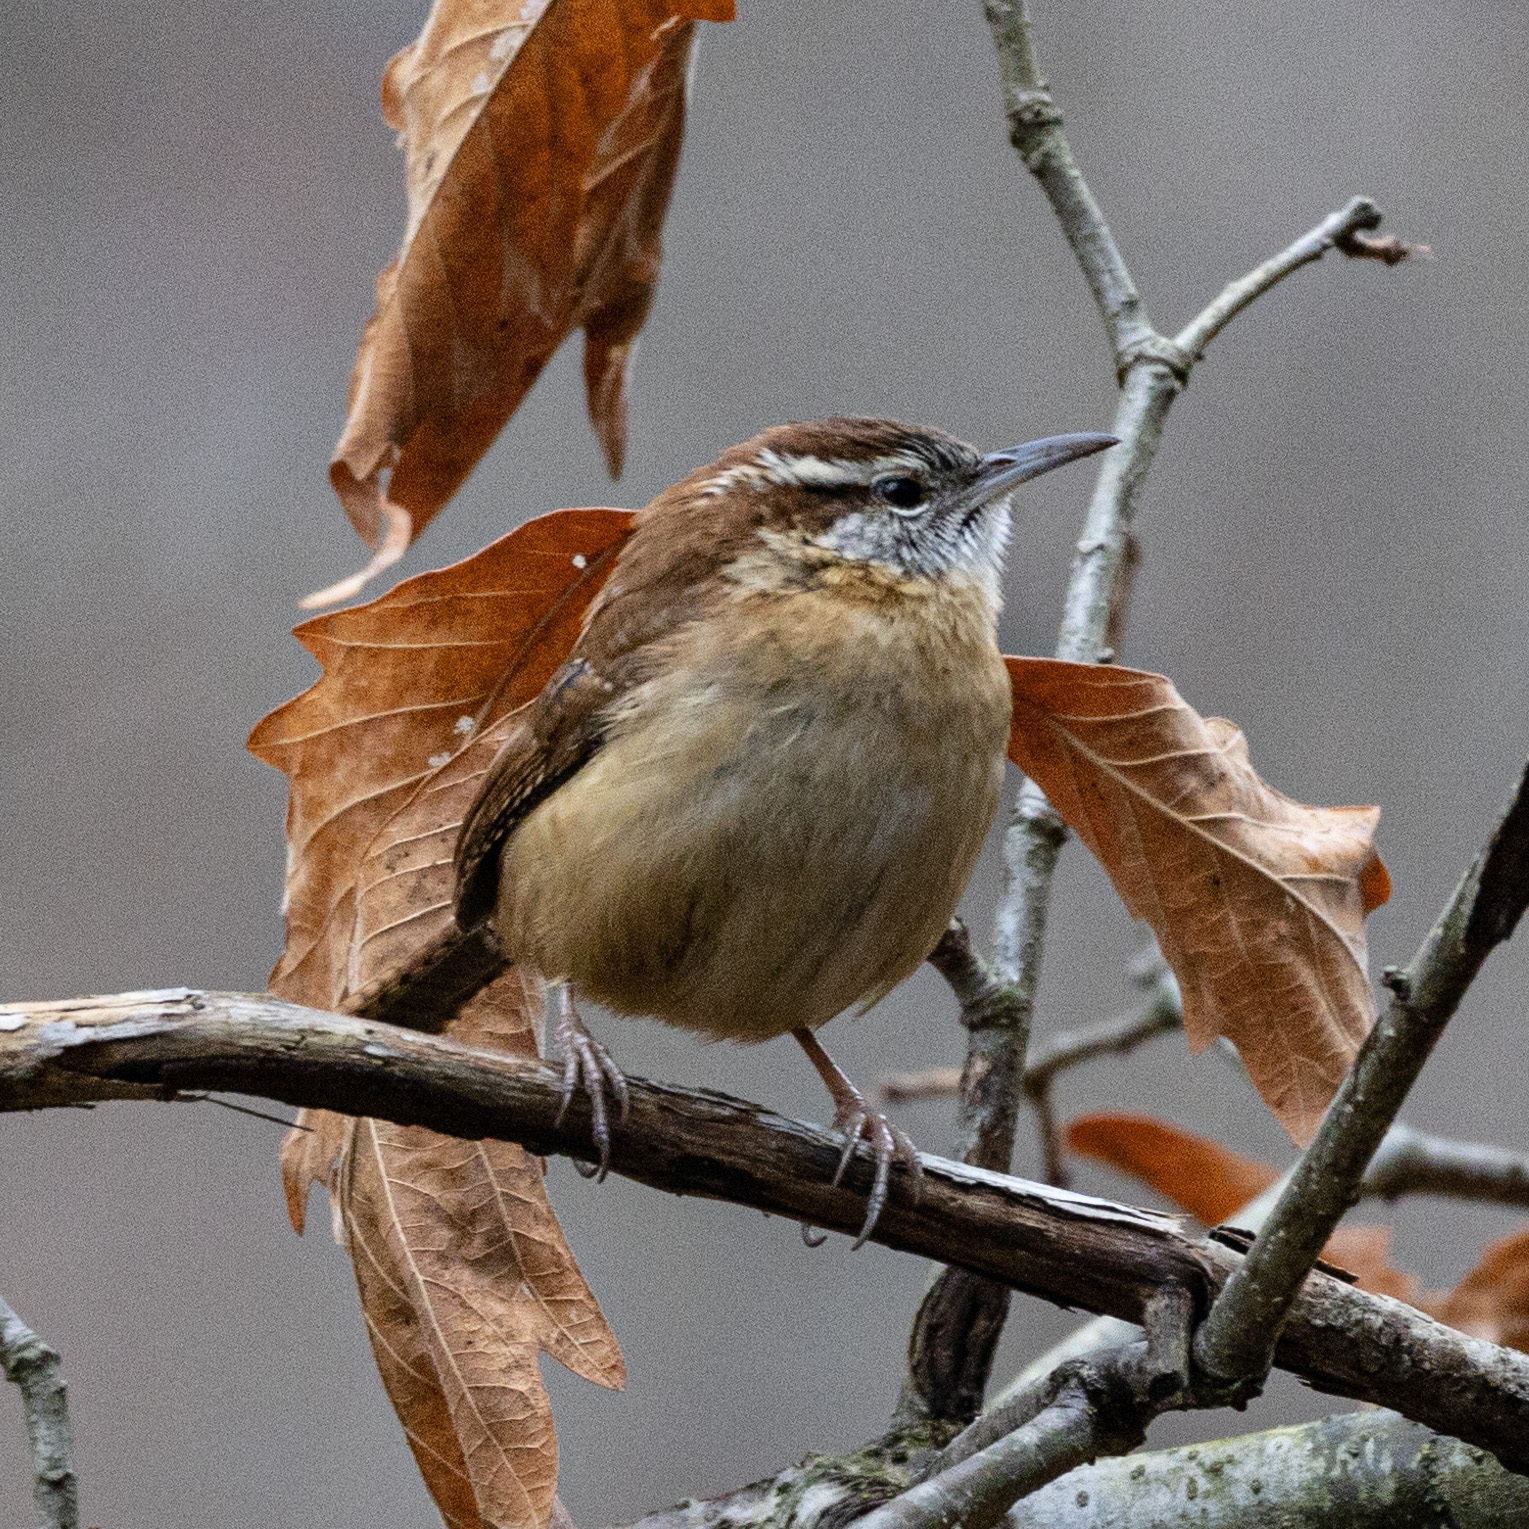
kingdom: Animalia
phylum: Chordata
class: Aves
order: Passeriformes
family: Troglodytidae
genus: Thryothorus
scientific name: Thryothorus ludovicianus
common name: Carolina wren
